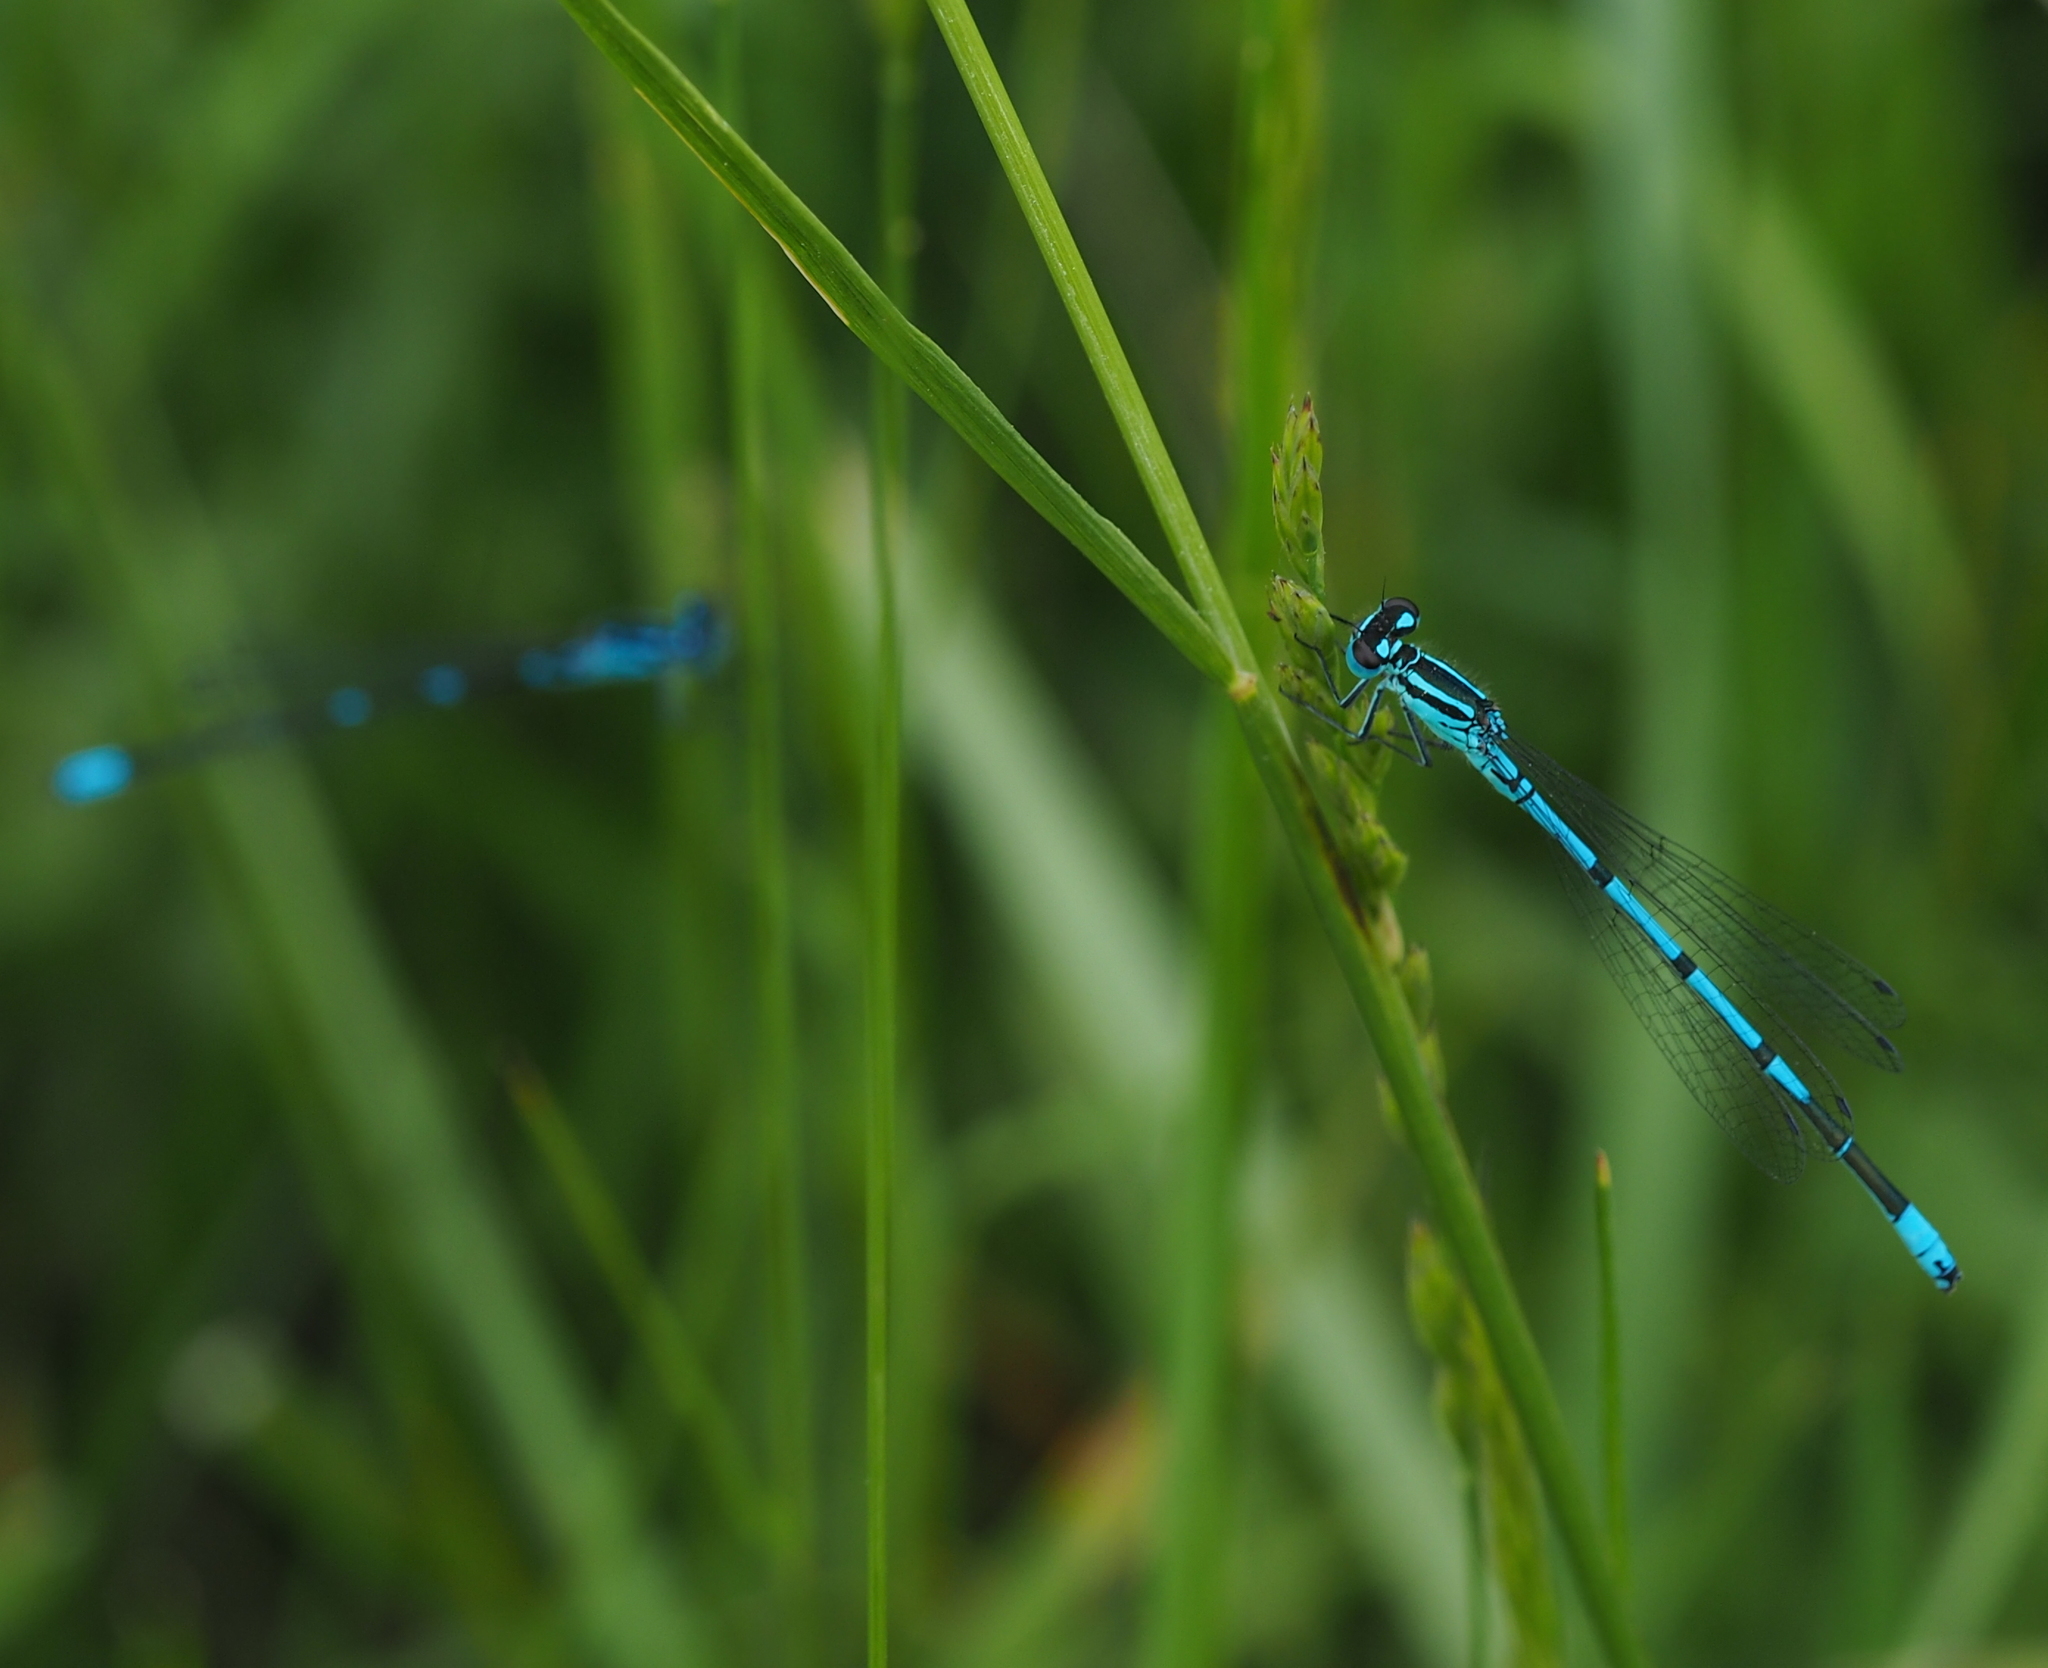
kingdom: Animalia
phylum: Arthropoda
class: Insecta
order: Odonata
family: Coenagrionidae
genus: Coenagrion
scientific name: Coenagrion puella
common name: Azure damselfly
